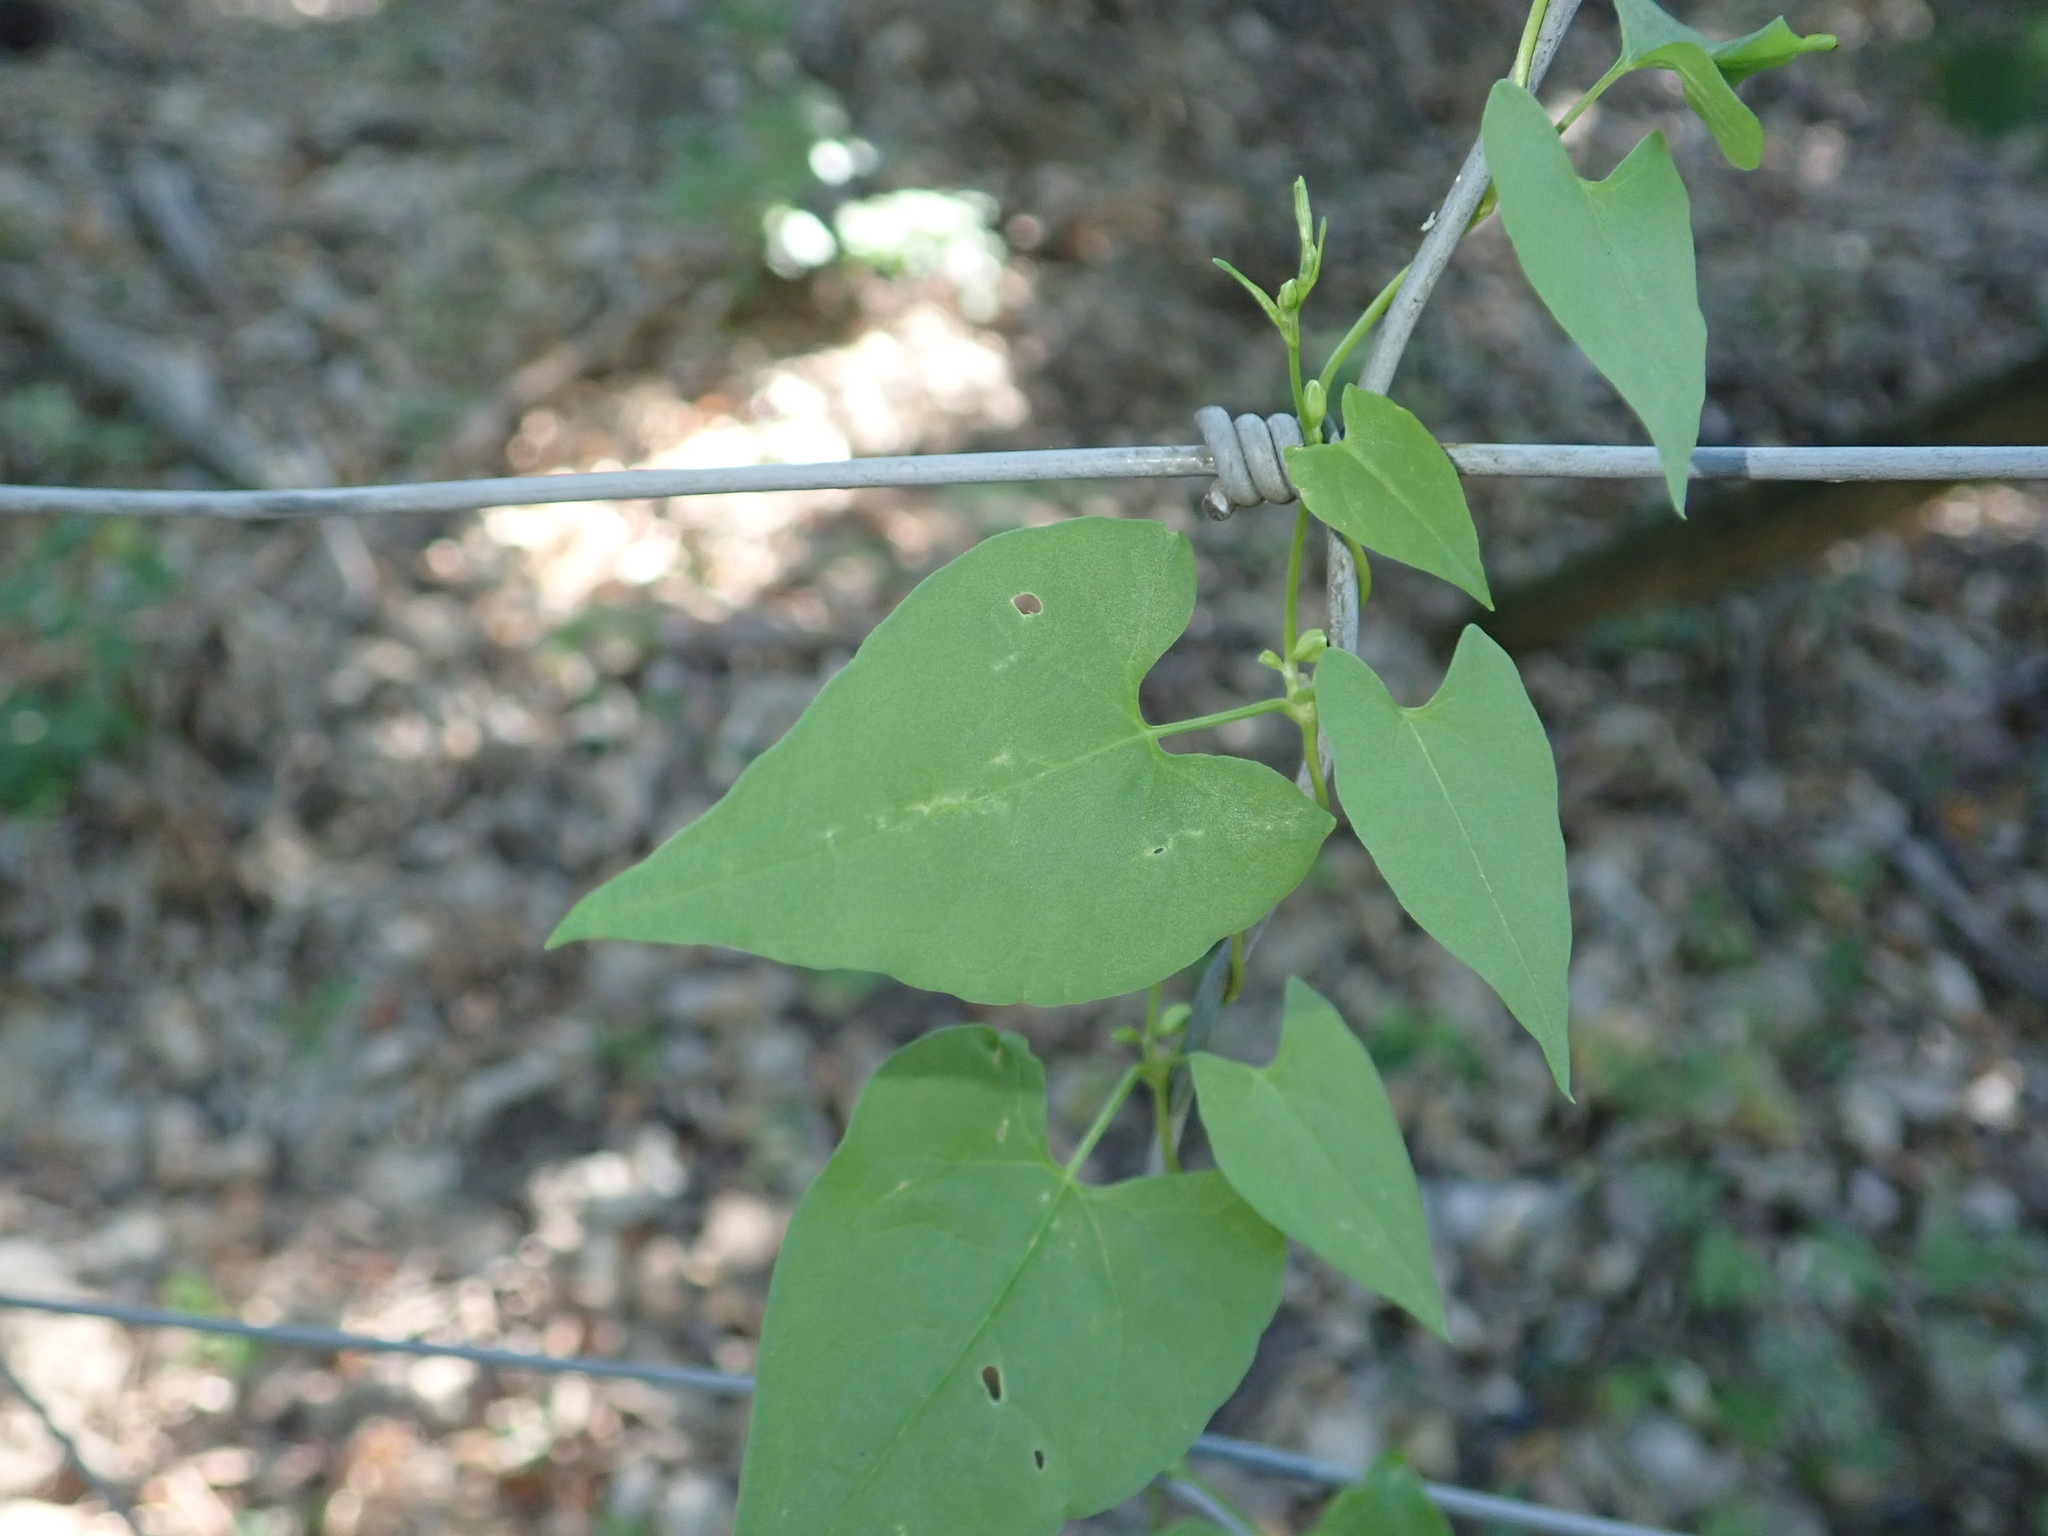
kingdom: Plantae
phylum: Tracheophyta
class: Magnoliopsida
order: Caryophyllales
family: Polygonaceae
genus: Fallopia
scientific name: Fallopia convolvulus
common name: Black bindweed
